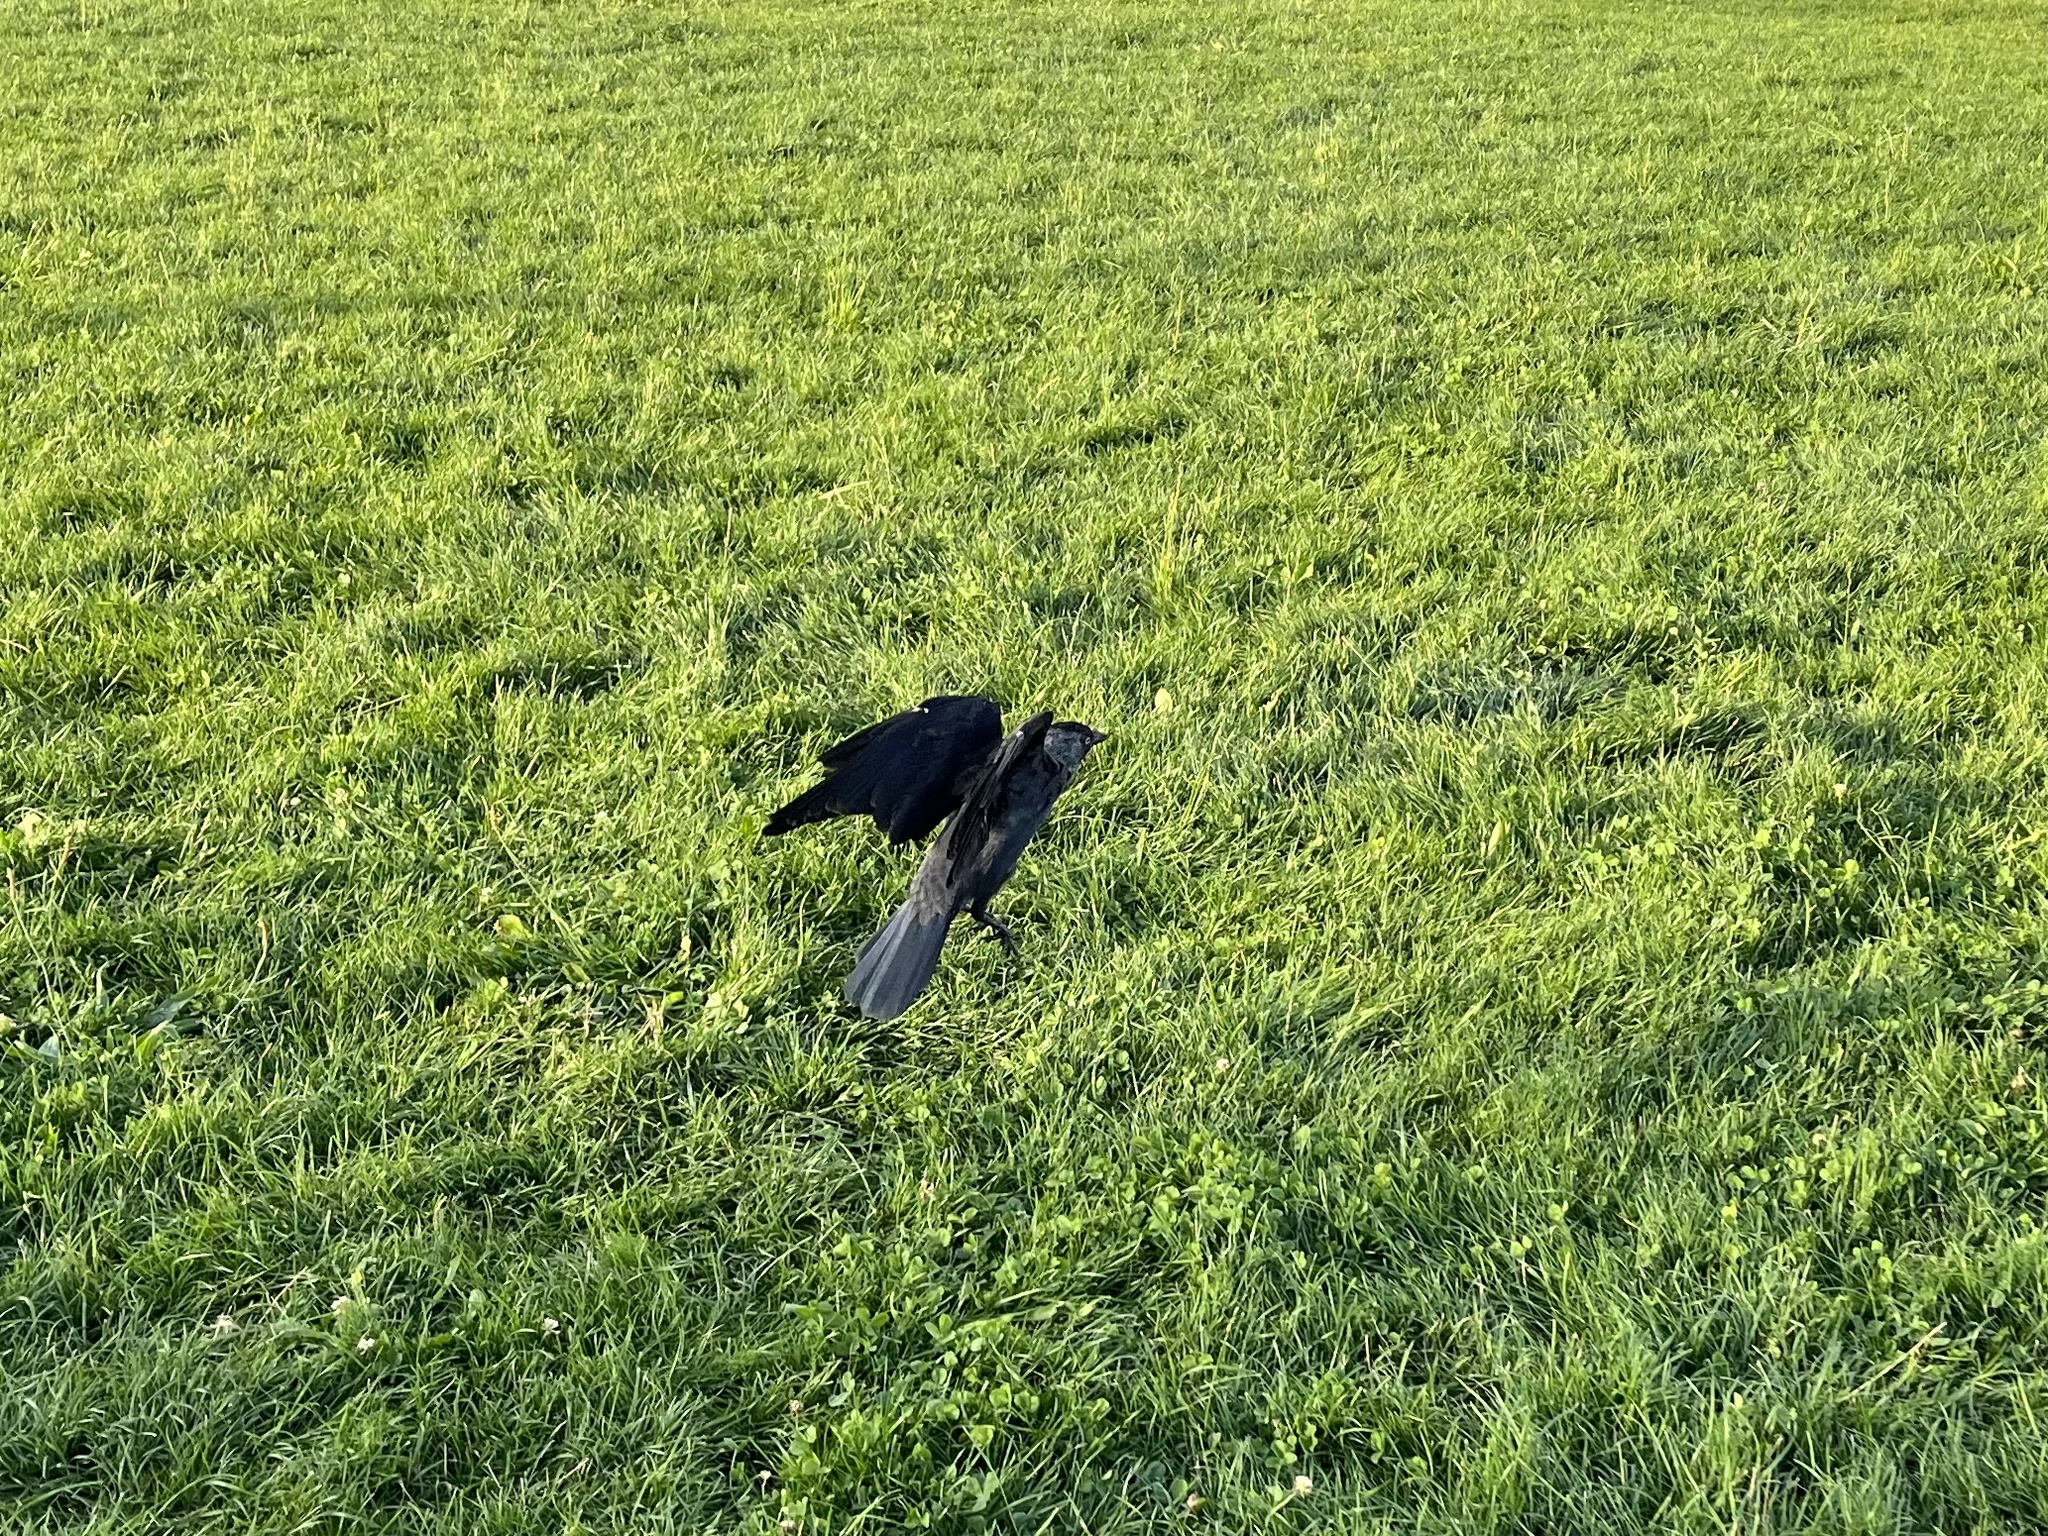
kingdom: Animalia
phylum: Chordata
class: Aves
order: Passeriformes
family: Corvidae
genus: Coloeus
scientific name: Coloeus monedula
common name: Western jackdaw
